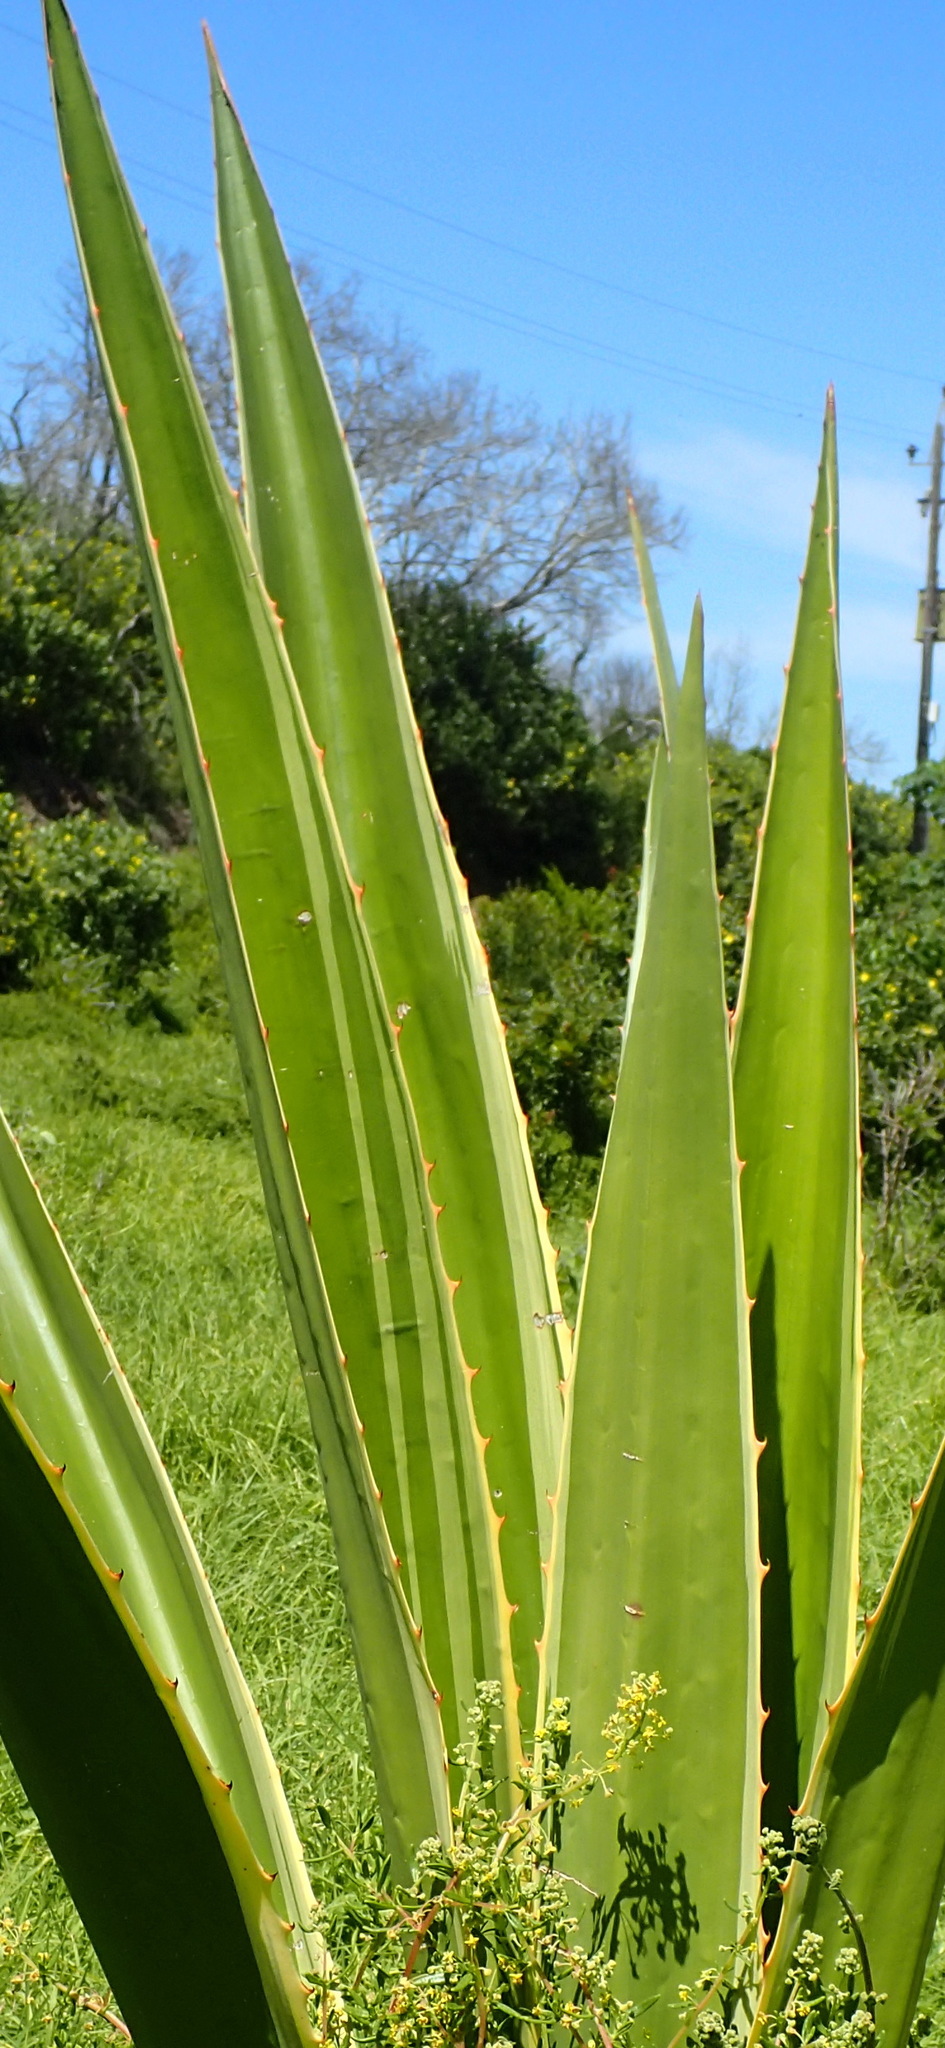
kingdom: Plantae
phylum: Tracheophyta
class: Liliopsida
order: Asparagales
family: Asparagaceae
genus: Furcraea
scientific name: Furcraea selloana
